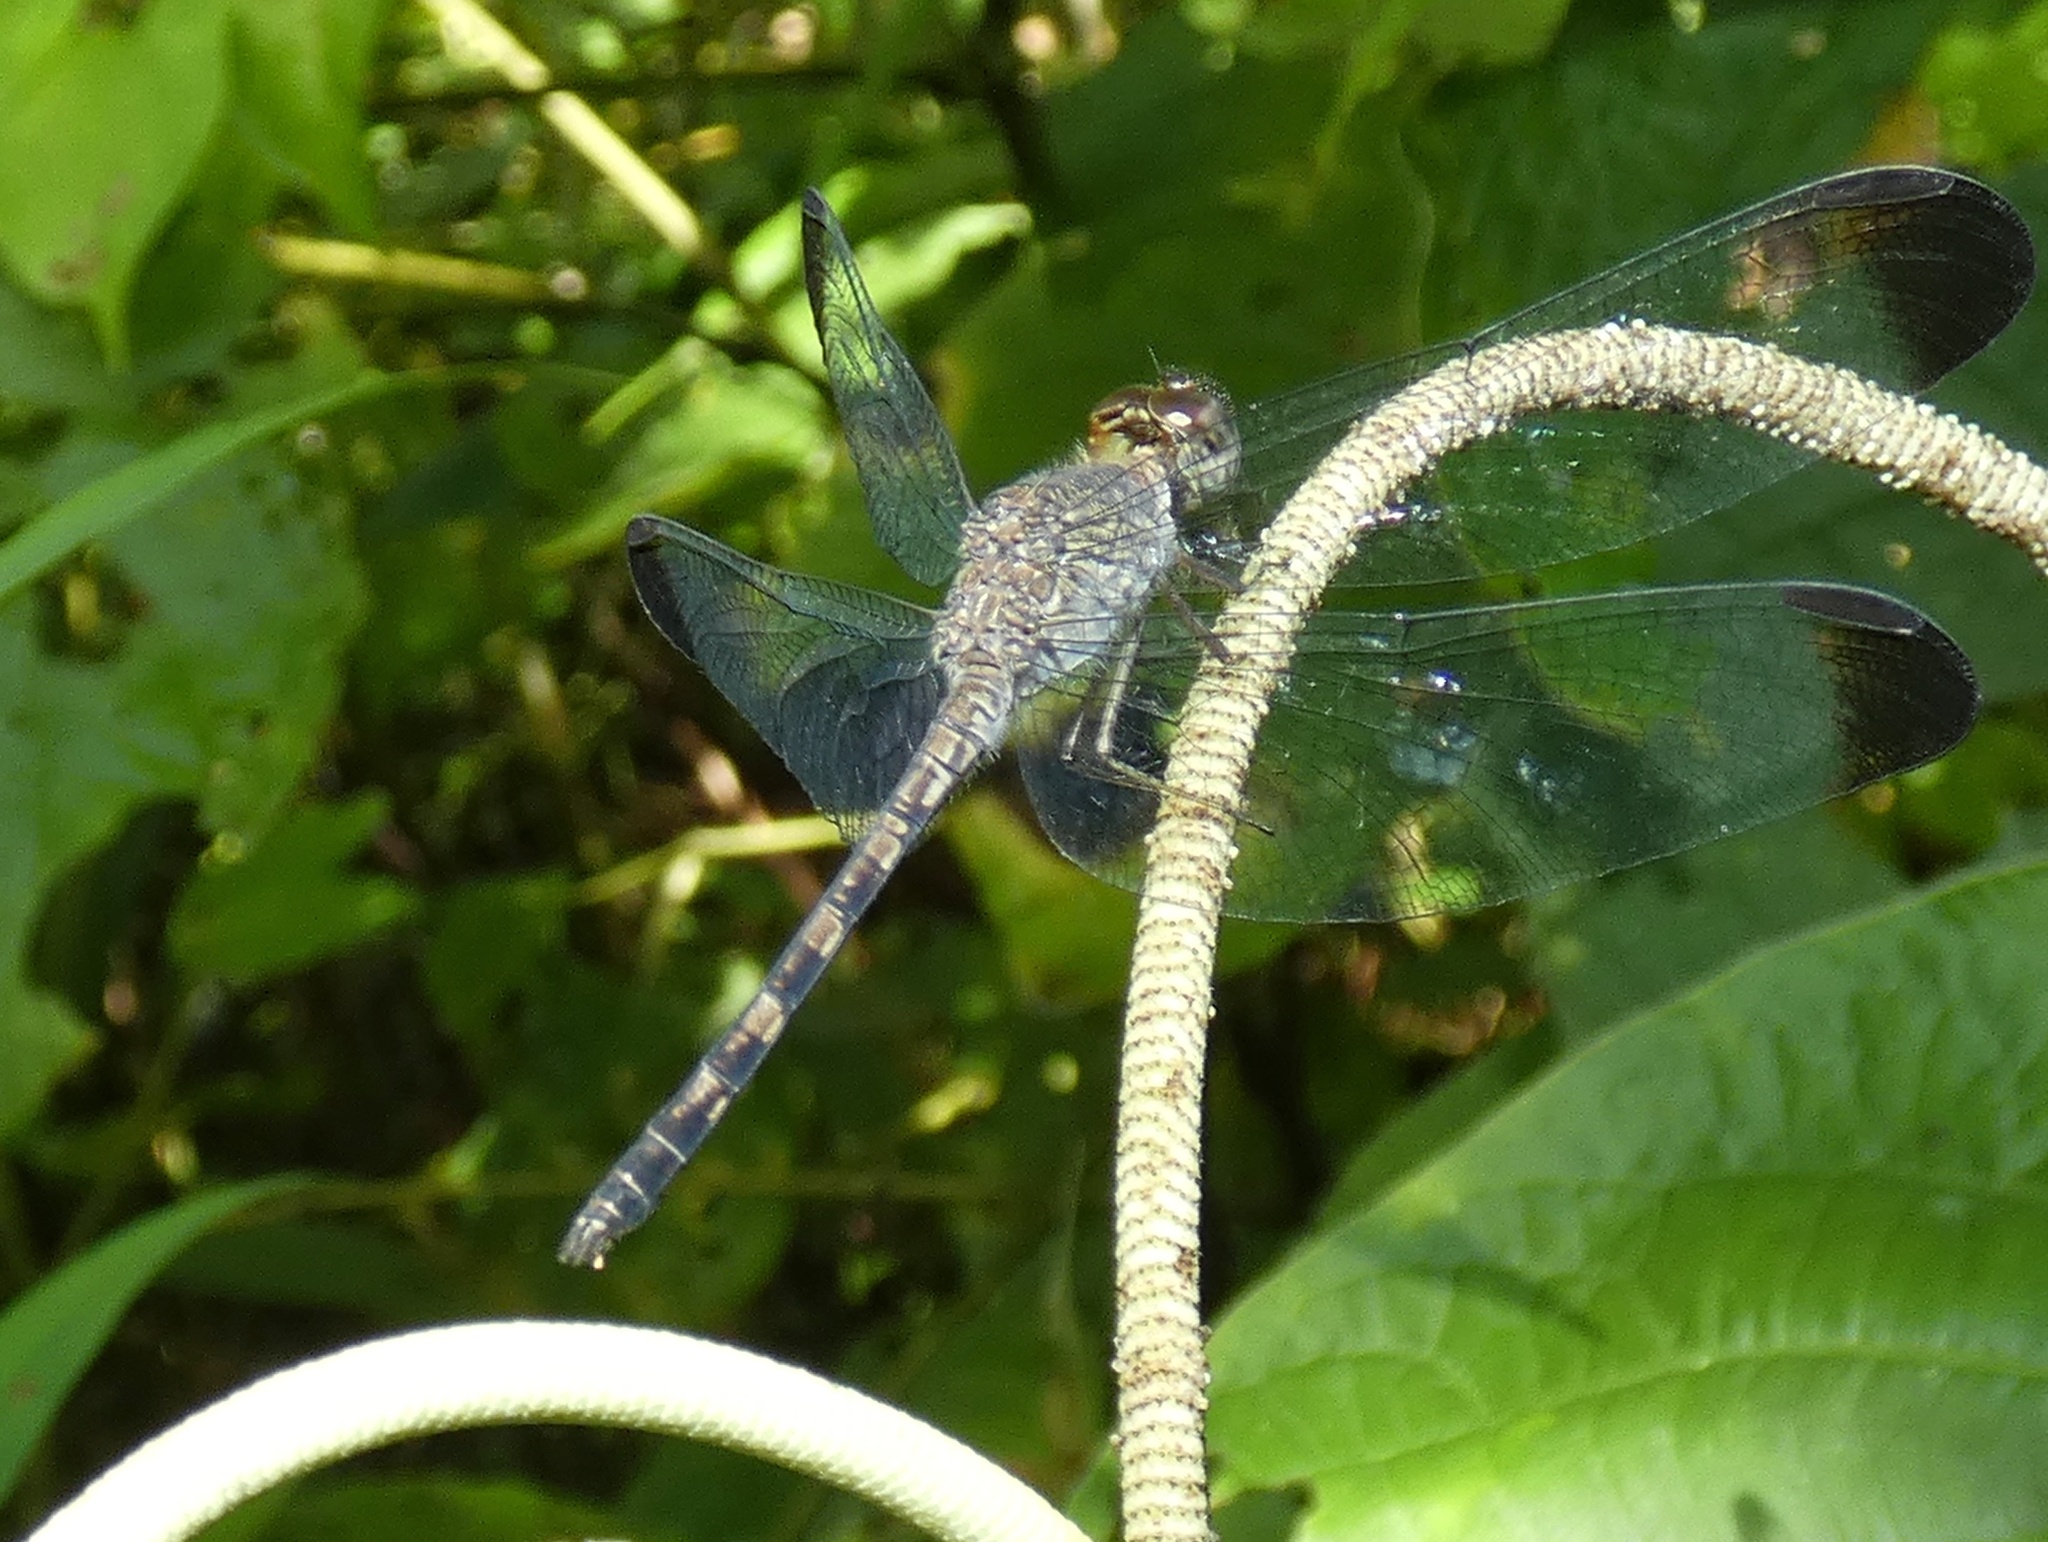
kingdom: Animalia
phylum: Arthropoda
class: Insecta
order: Odonata
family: Libellulidae
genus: Uracis
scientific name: Uracis imbuta
